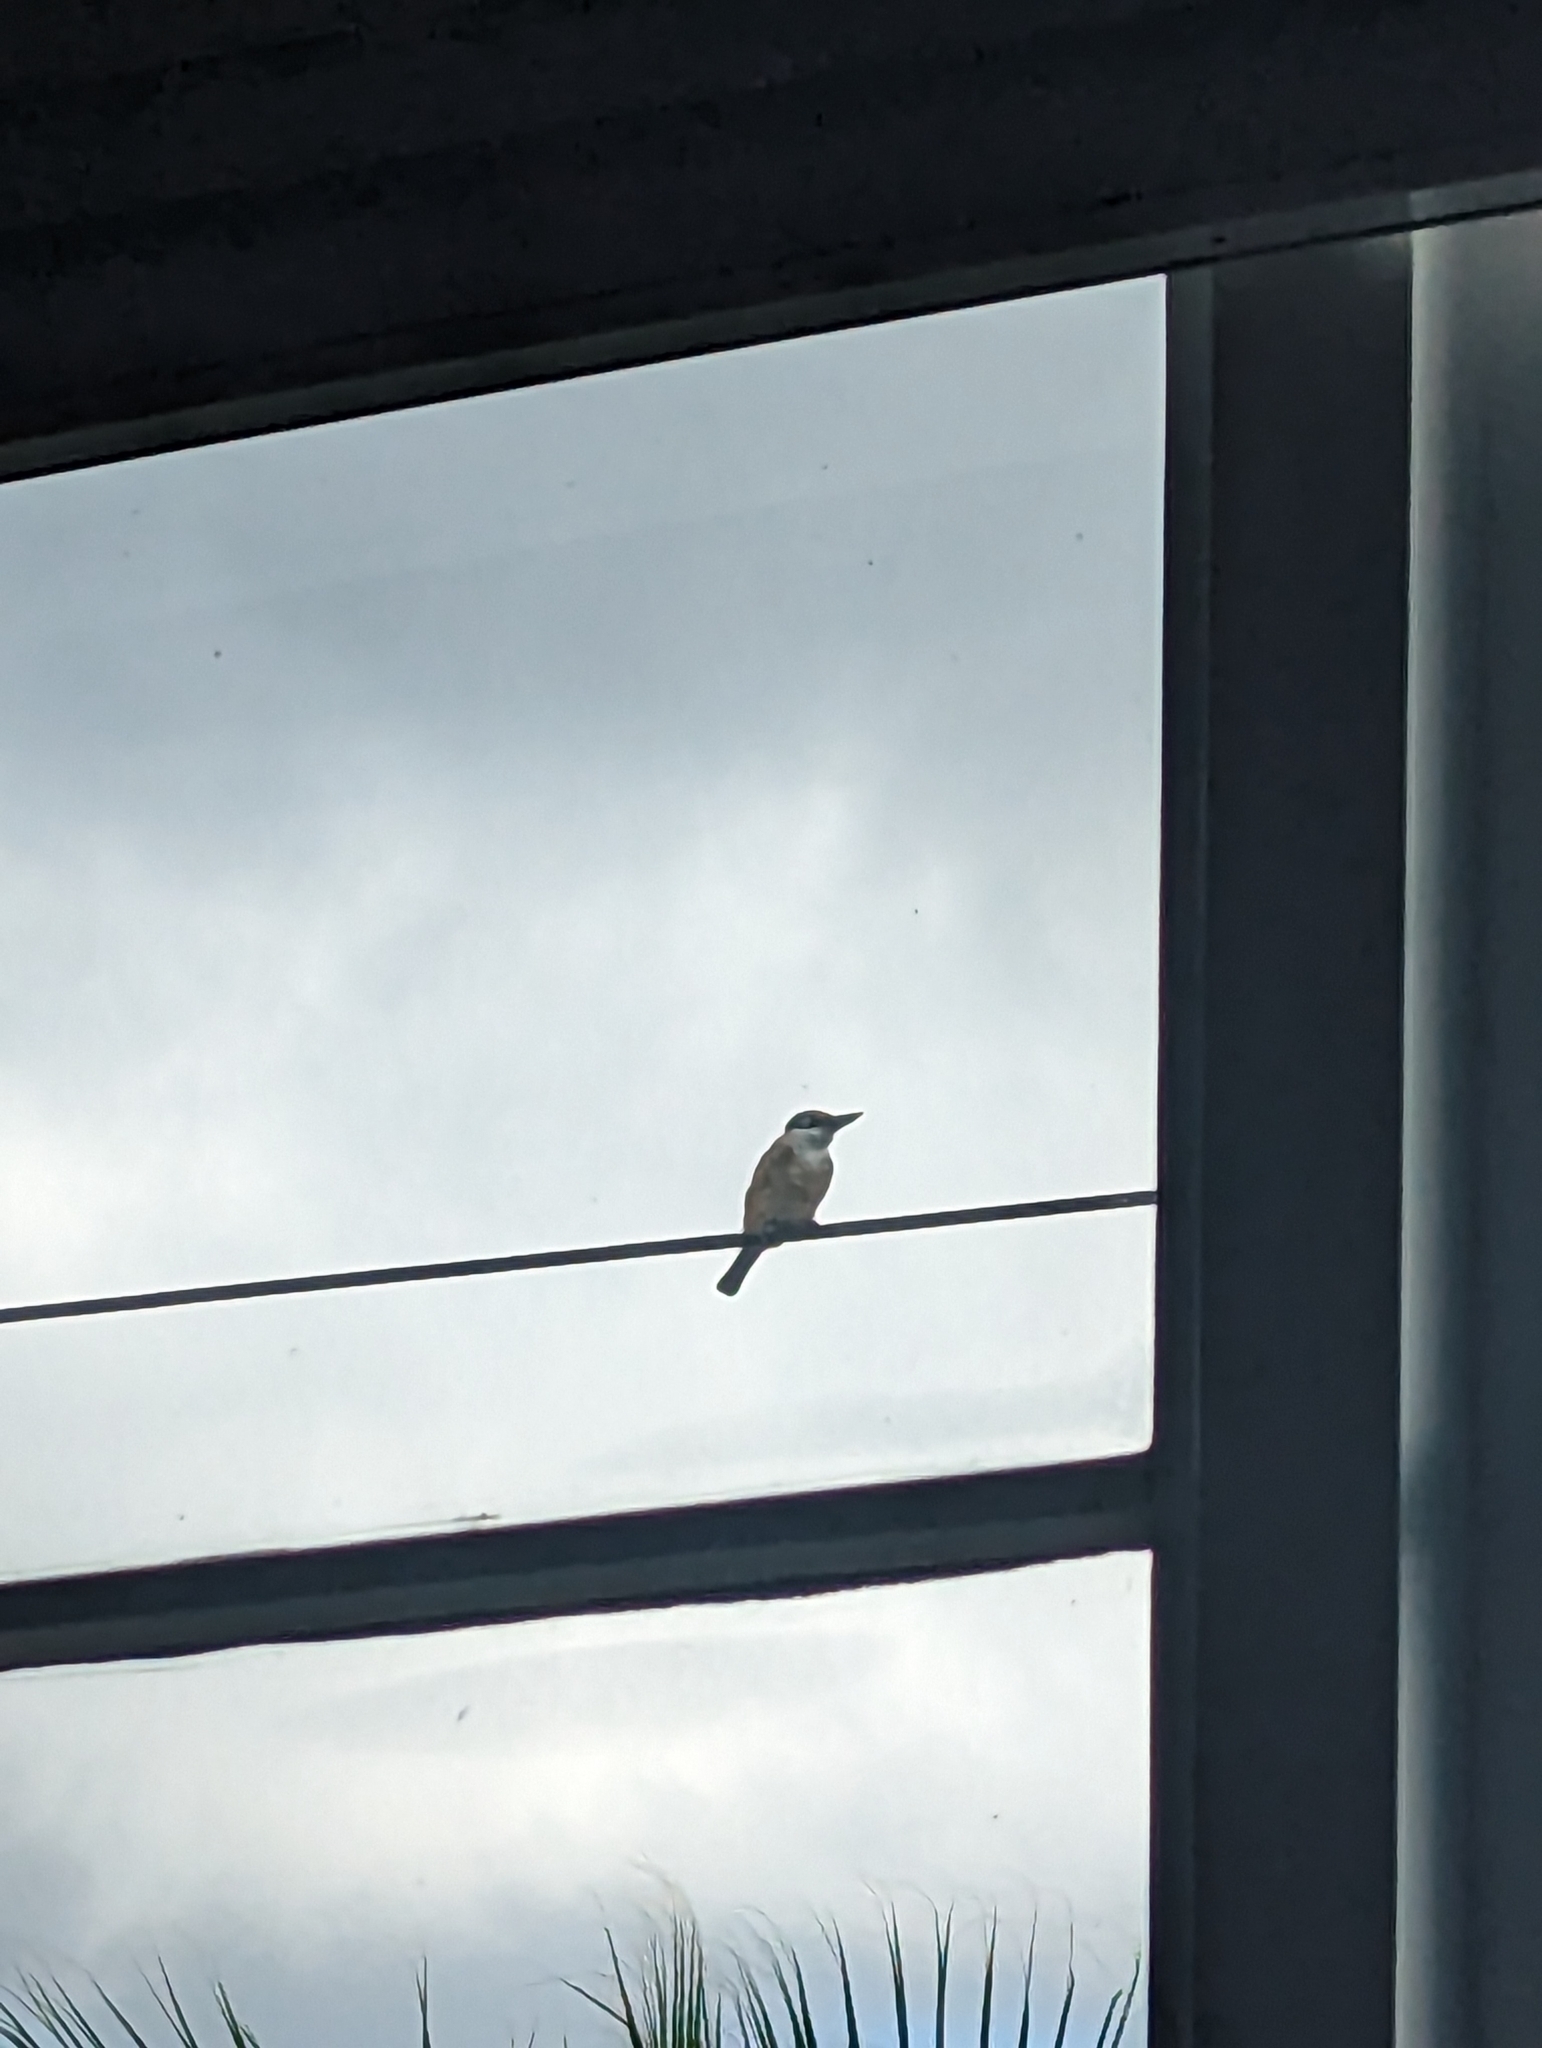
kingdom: Animalia
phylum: Chordata
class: Aves
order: Coraciiformes
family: Alcedinidae
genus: Todiramphus
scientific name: Todiramphus sanctus
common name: Sacred kingfisher
